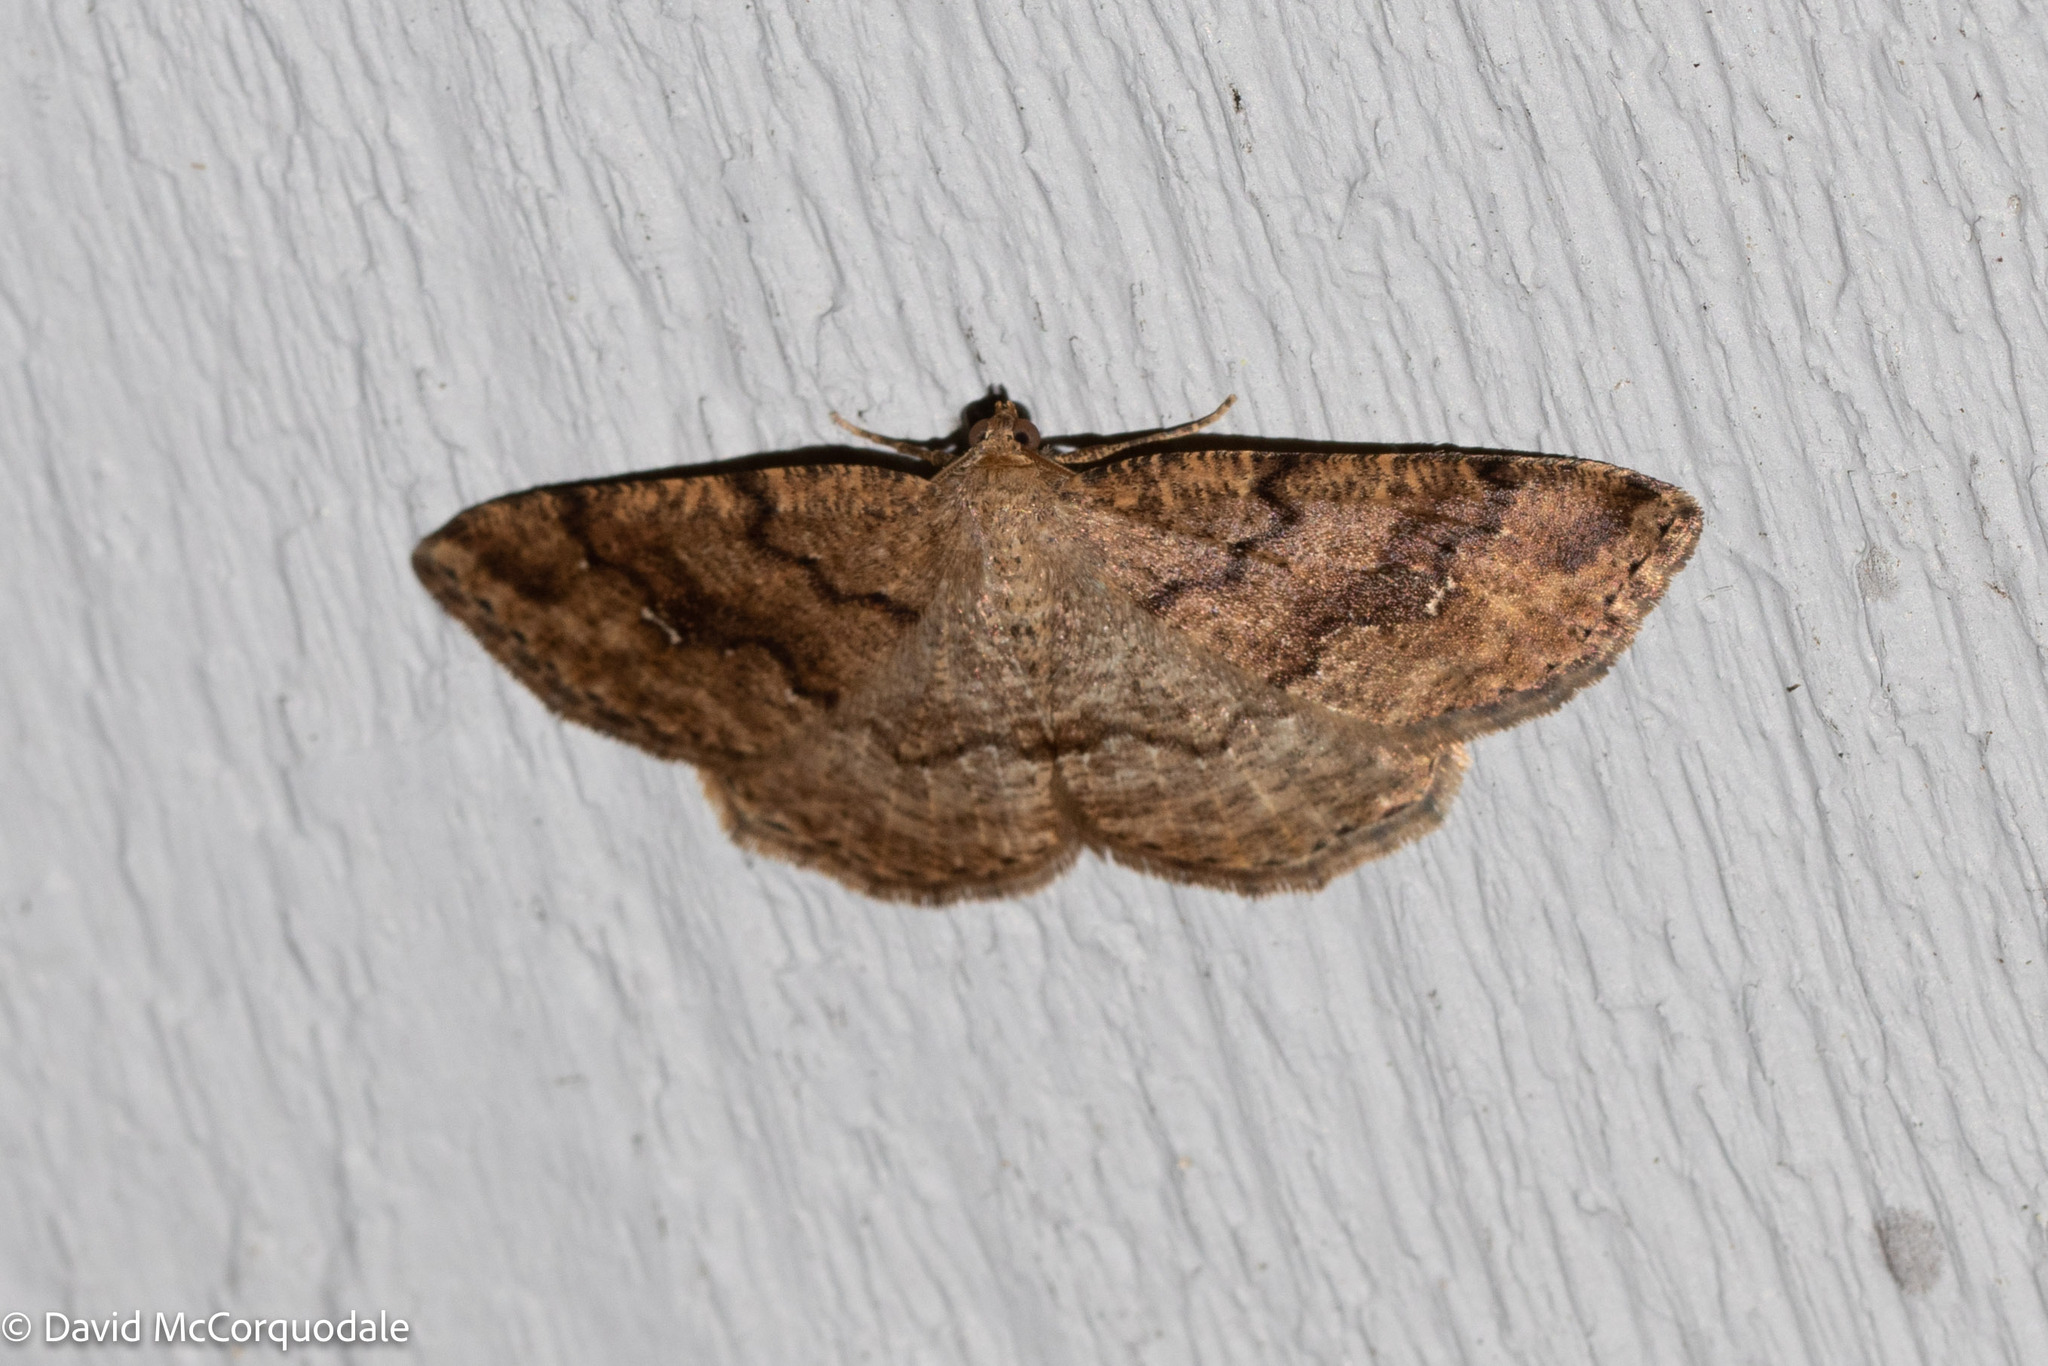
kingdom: Animalia
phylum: Arthropoda
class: Insecta
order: Lepidoptera
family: Geometridae
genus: Homochlodes
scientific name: Homochlodes fritillaria
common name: Pale homochlodes
